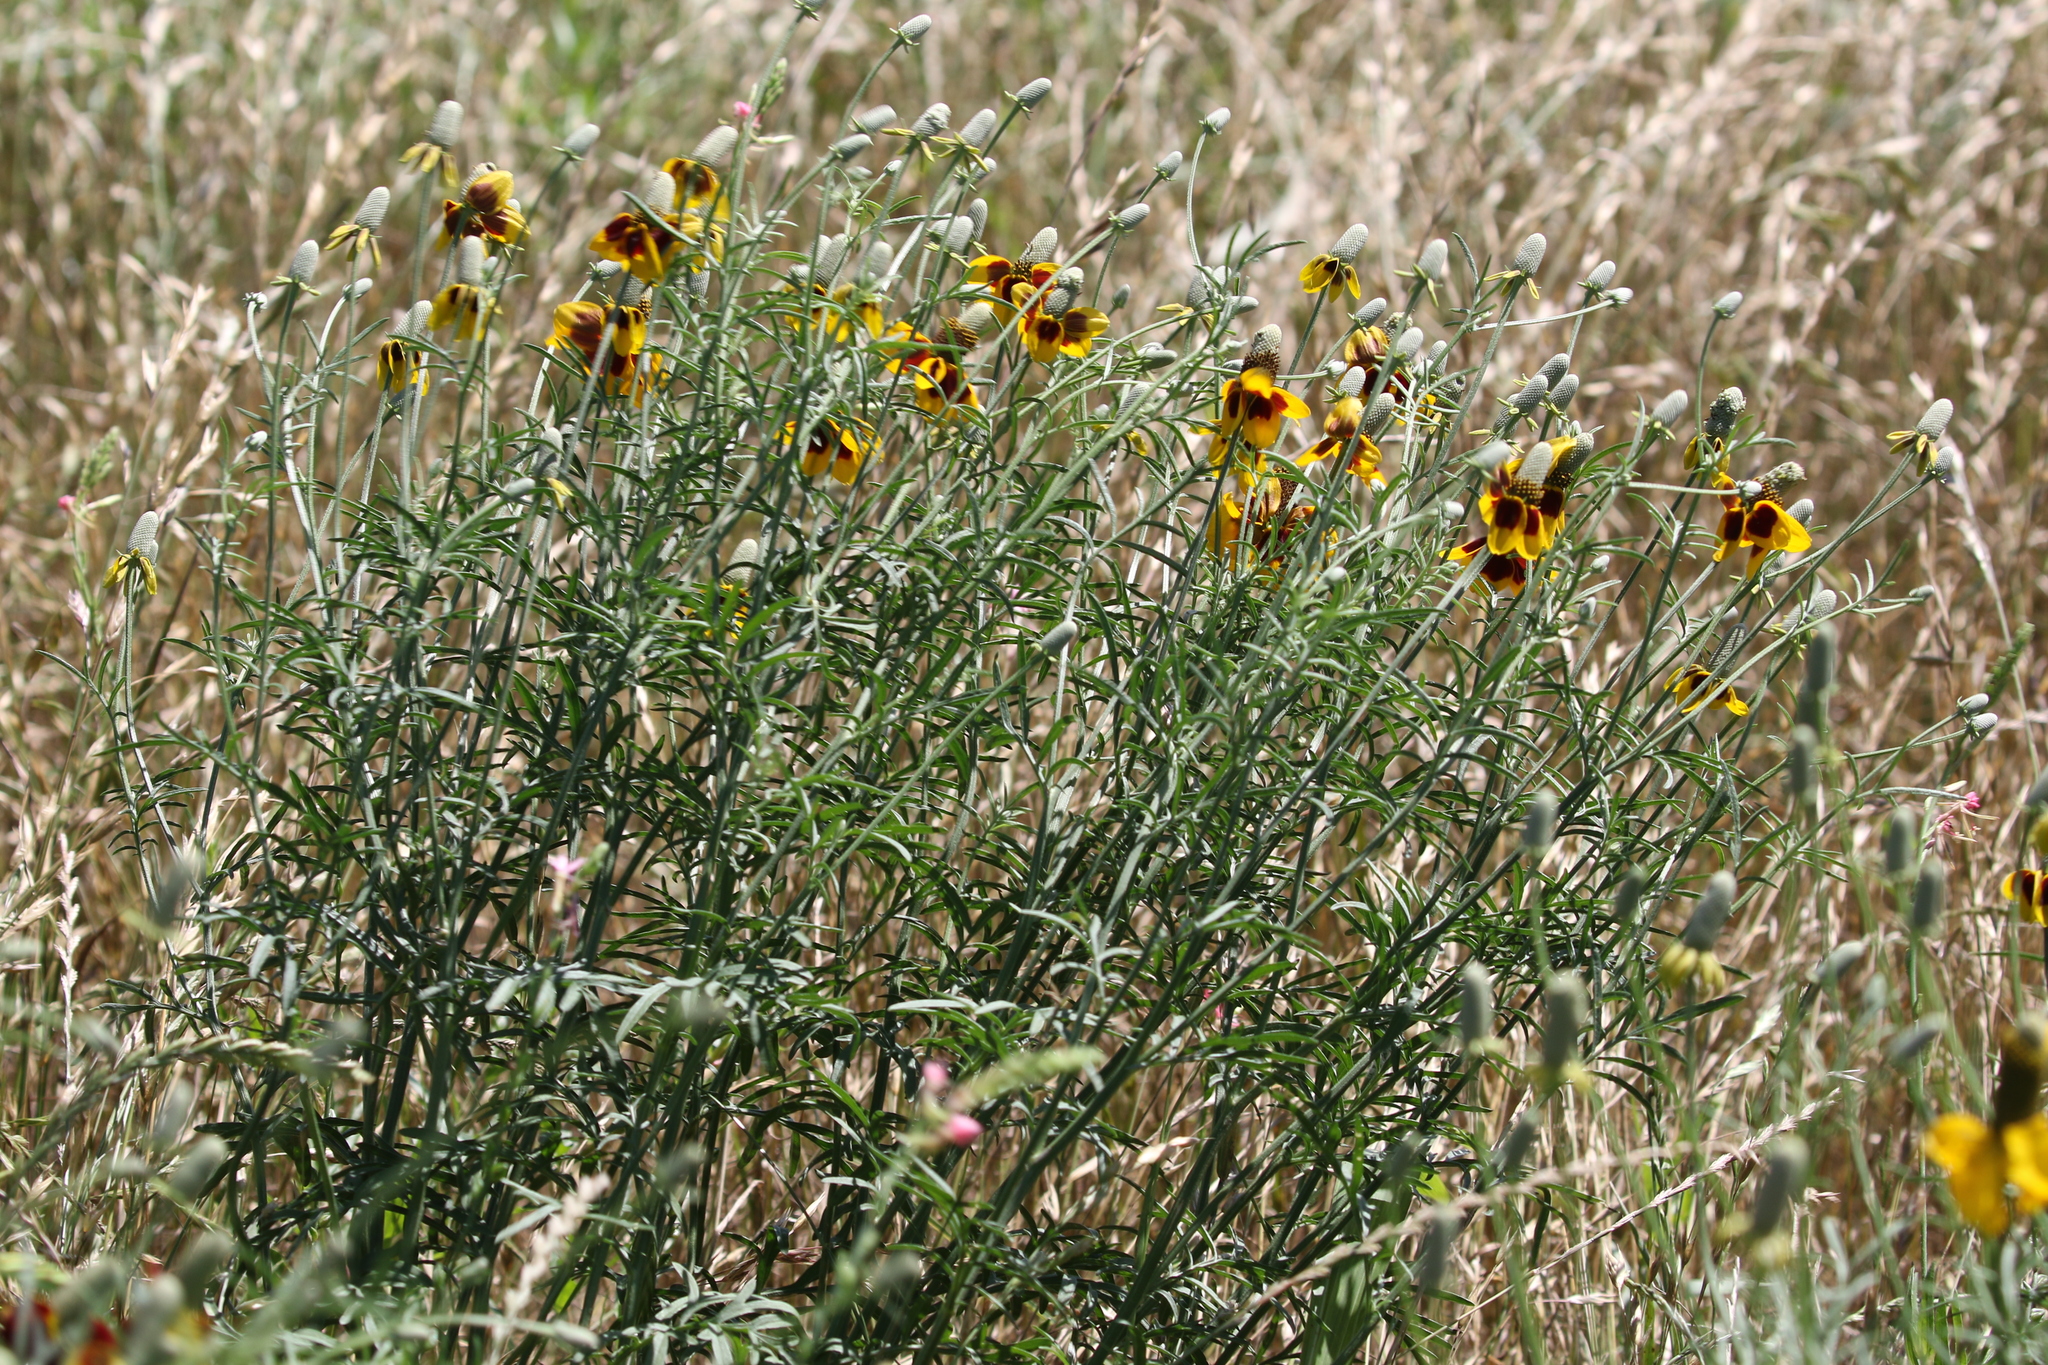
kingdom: Plantae
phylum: Tracheophyta
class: Magnoliopsida
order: Asterales
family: Asteraceae
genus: Ratibida
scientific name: Ratibida columnifera
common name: Prairie coneflower
